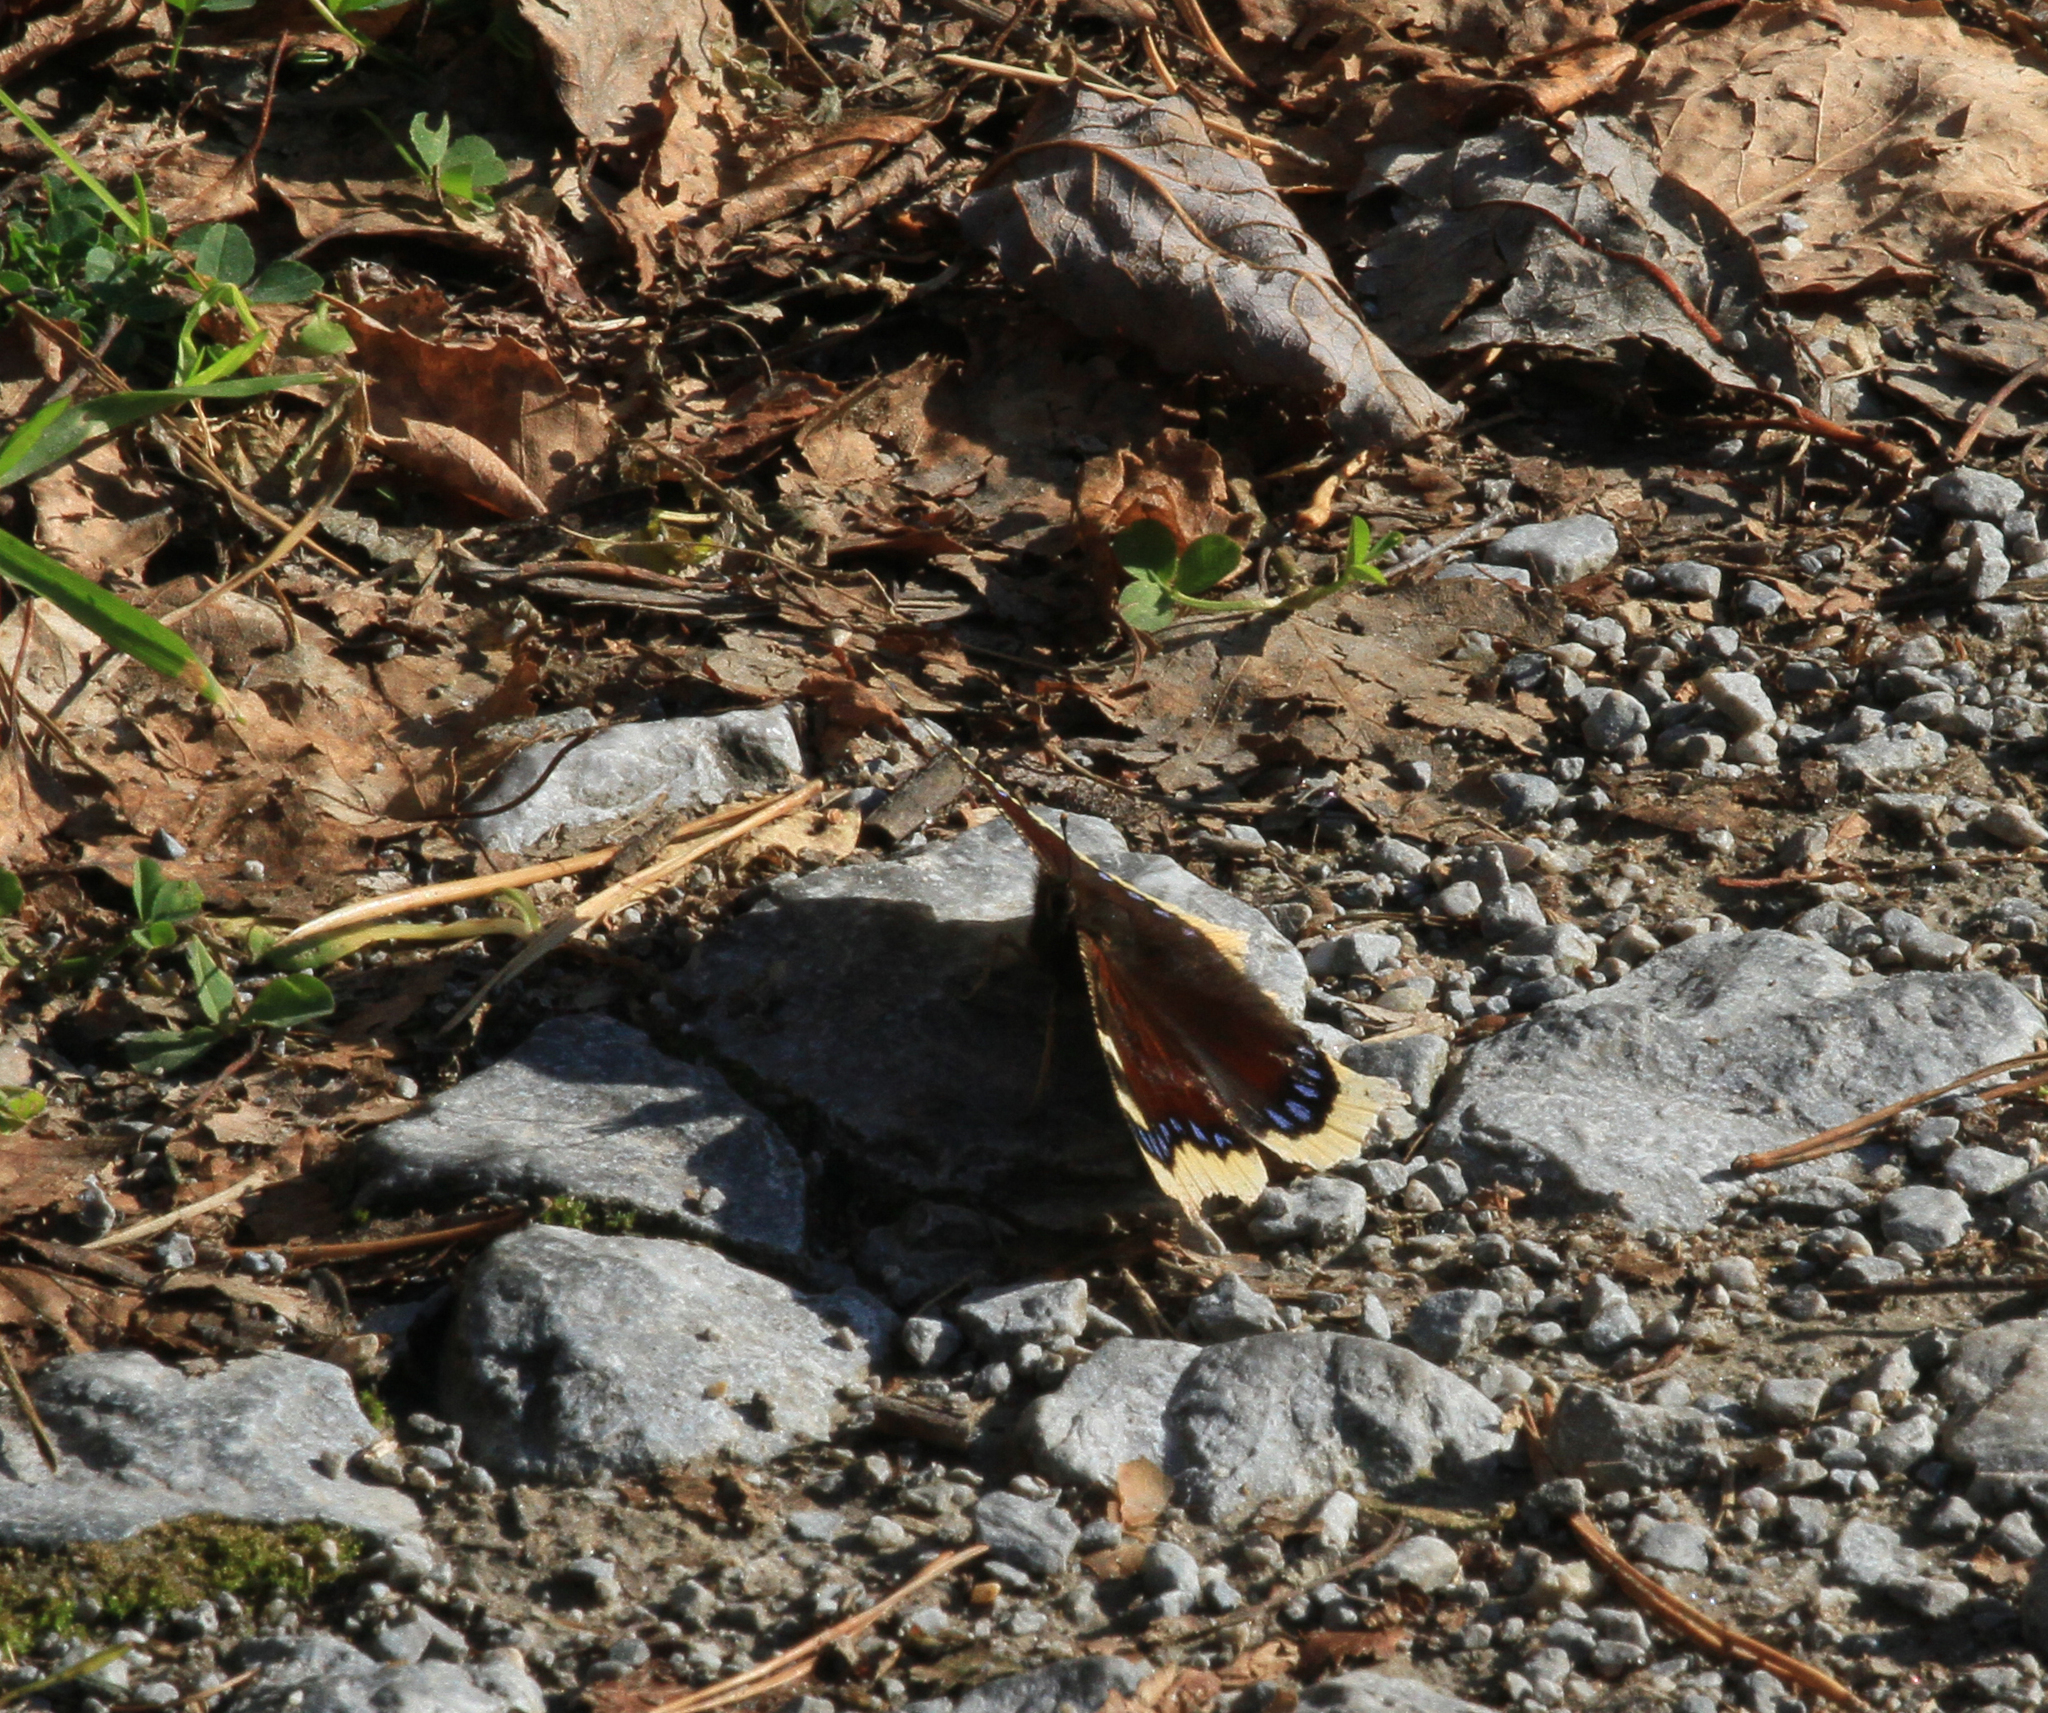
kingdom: Animalia
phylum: Arthropoda
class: Insecta
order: Lepidoptera
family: Nymphalidae
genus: Nymphalis
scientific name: Nymphalis antiopa
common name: Camberwell beauty
